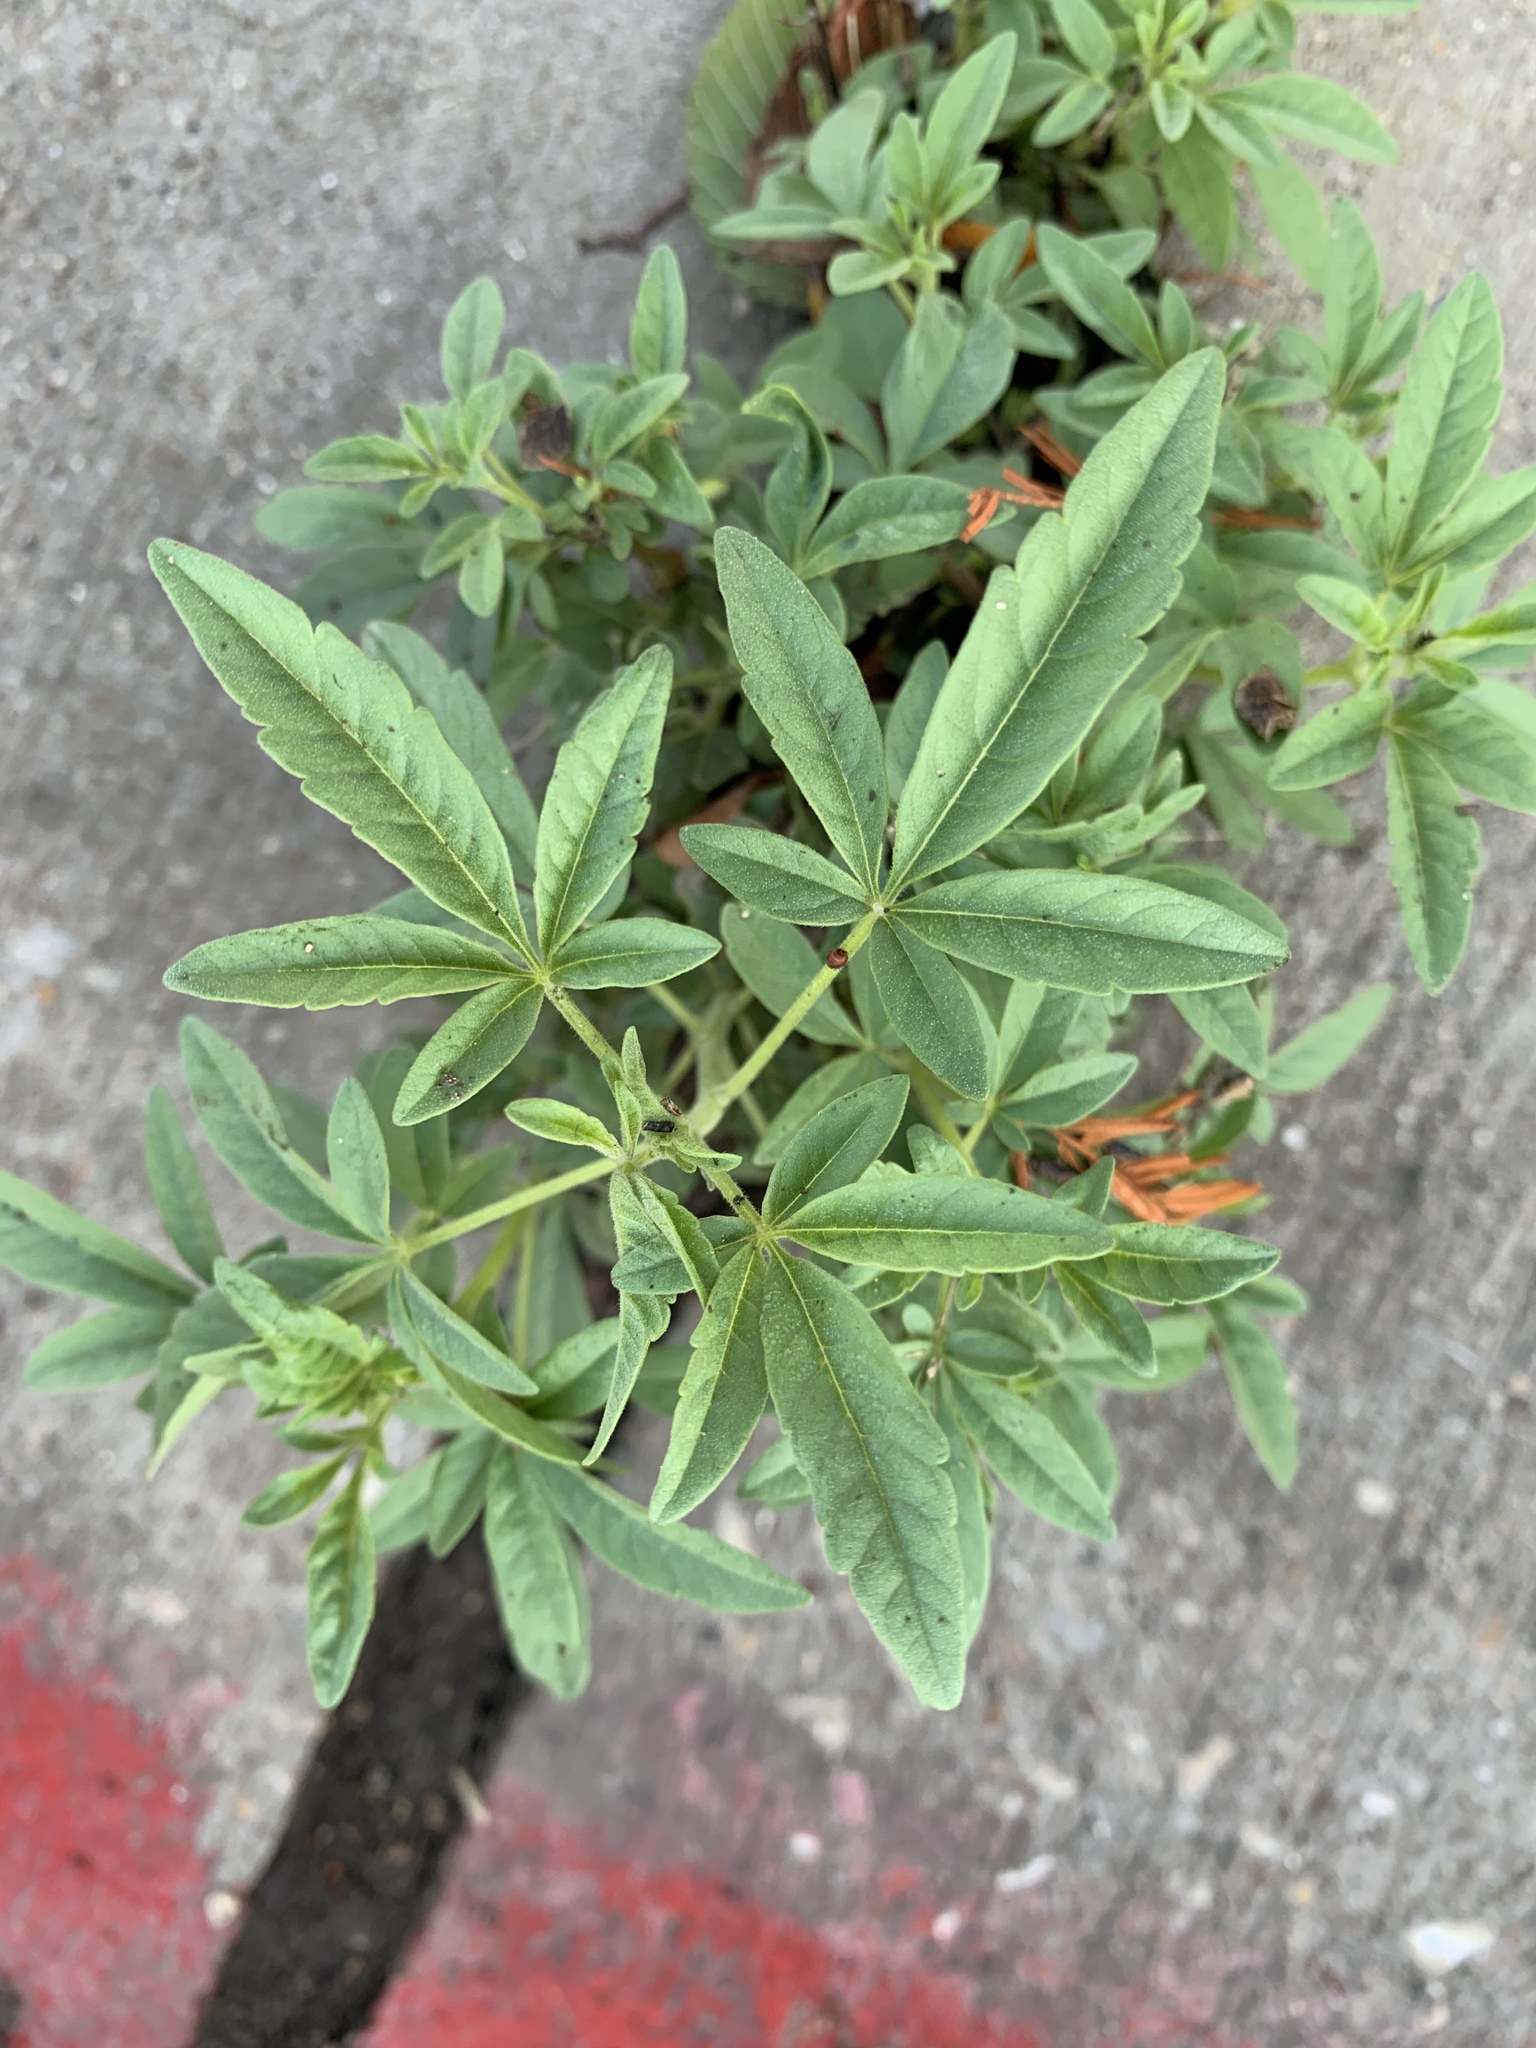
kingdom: Plantae
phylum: Tracheophyta
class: Magnoliopsida
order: Lamiales
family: Lamiaceae
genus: Vitex
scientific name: Vitex agnus-castus
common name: Chasteberry
